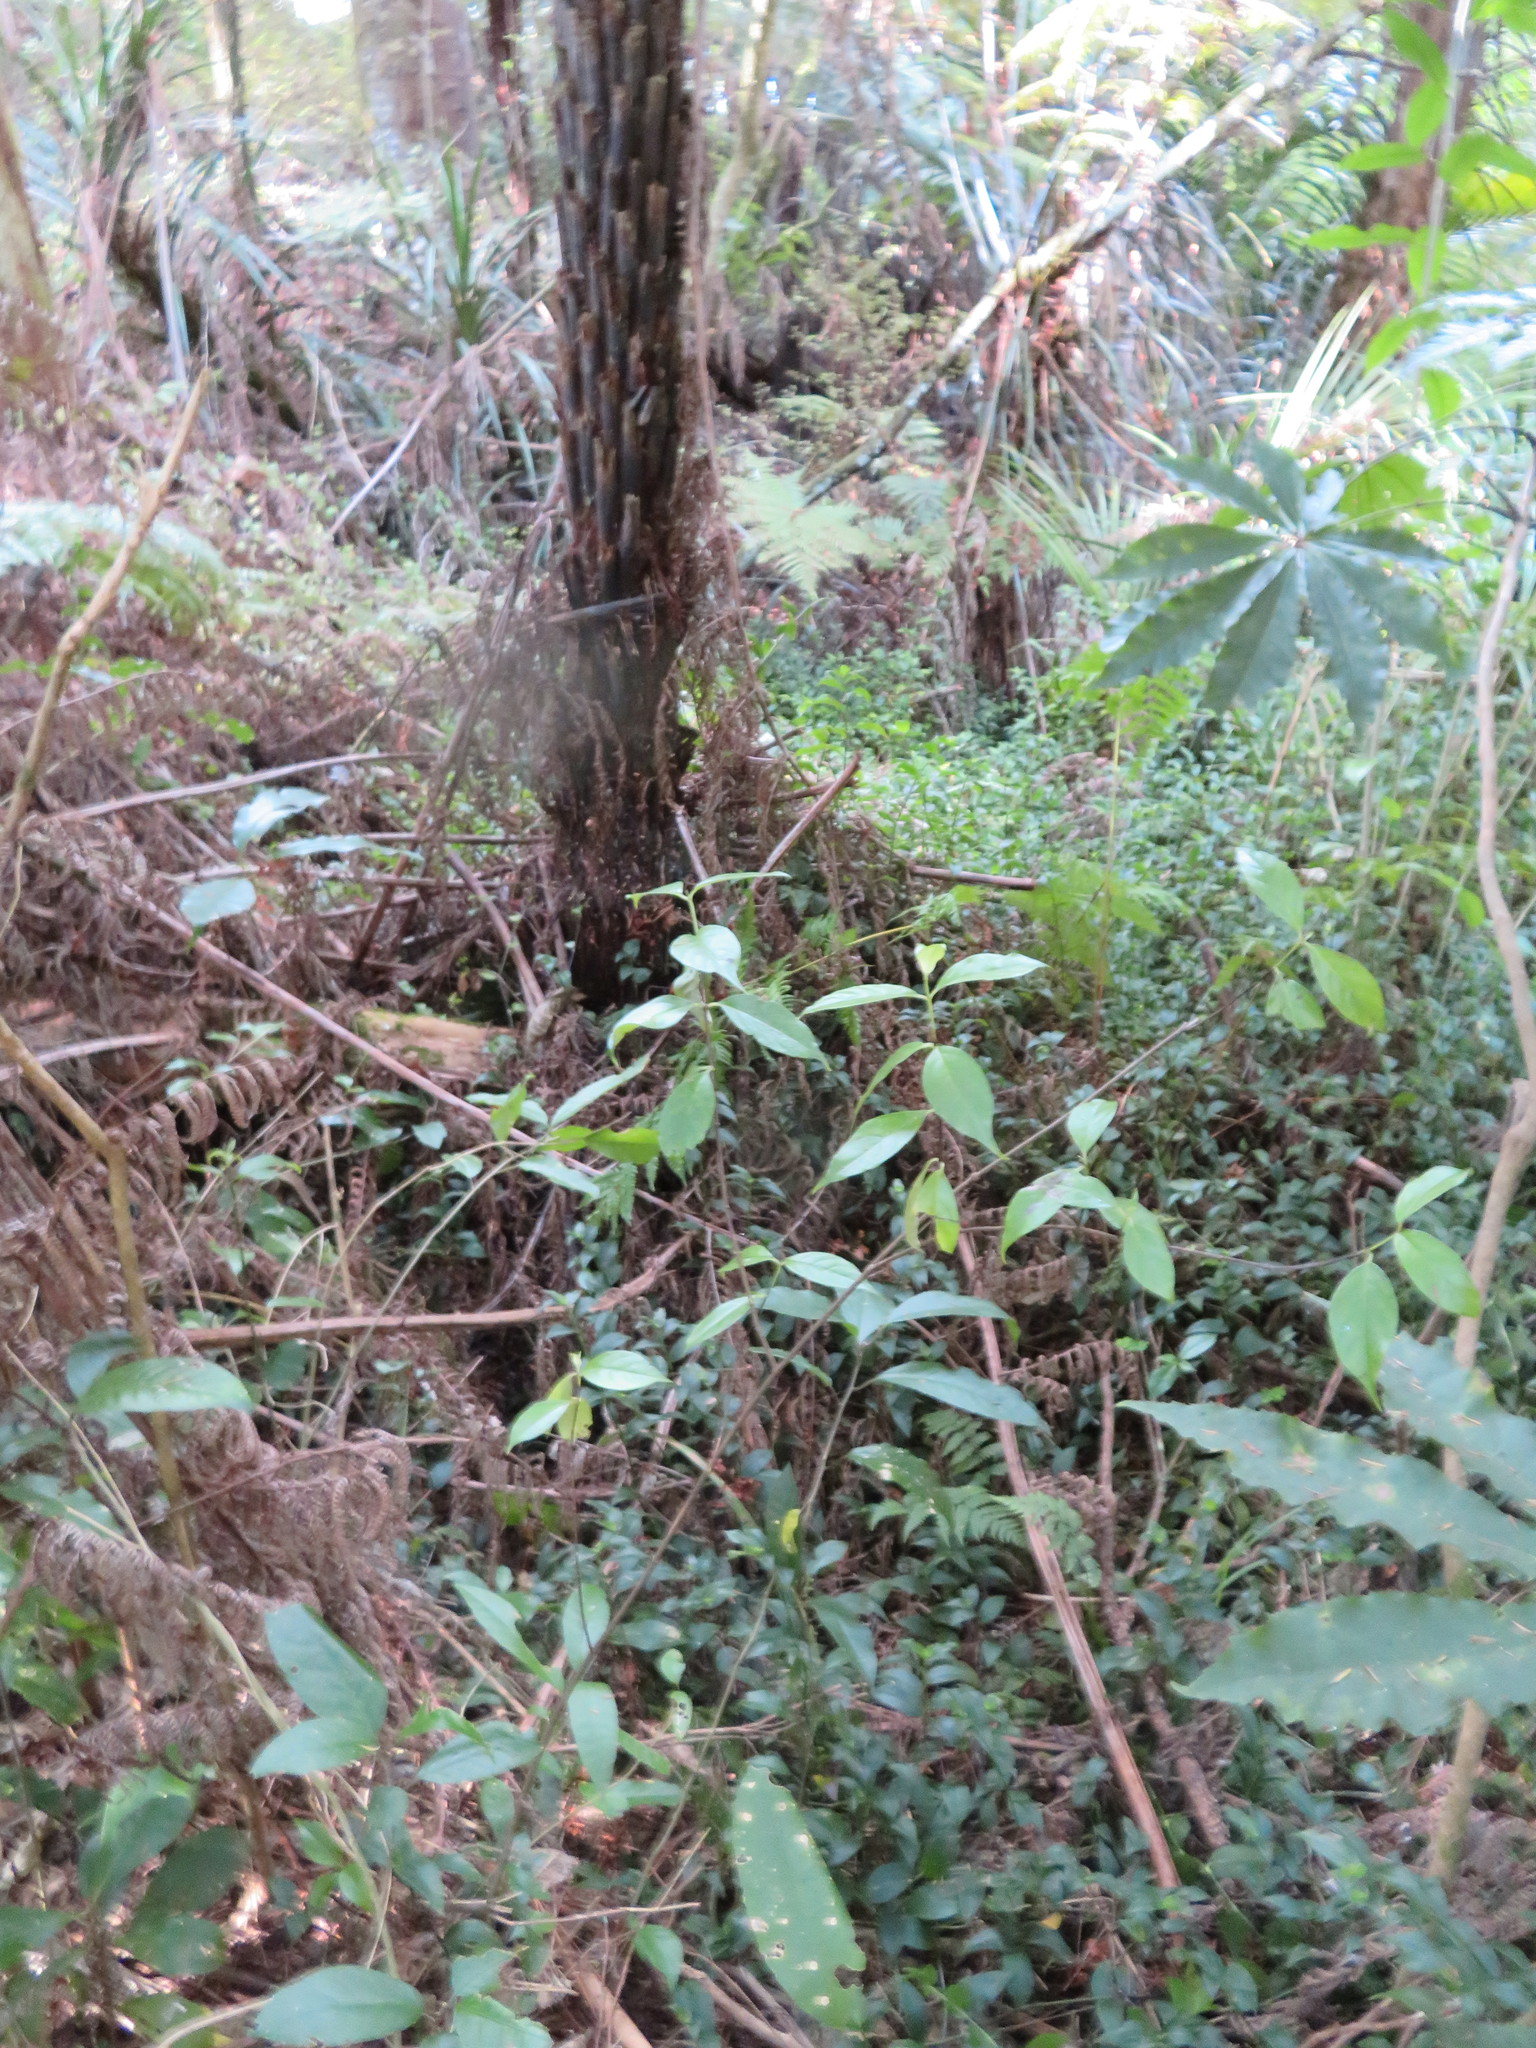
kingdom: Plantae
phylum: Tracheophyta
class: Magnoliopsida
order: Gentianales
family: Loganiaceae
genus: Geniostoma
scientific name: Geniostoma ligustrifolium
